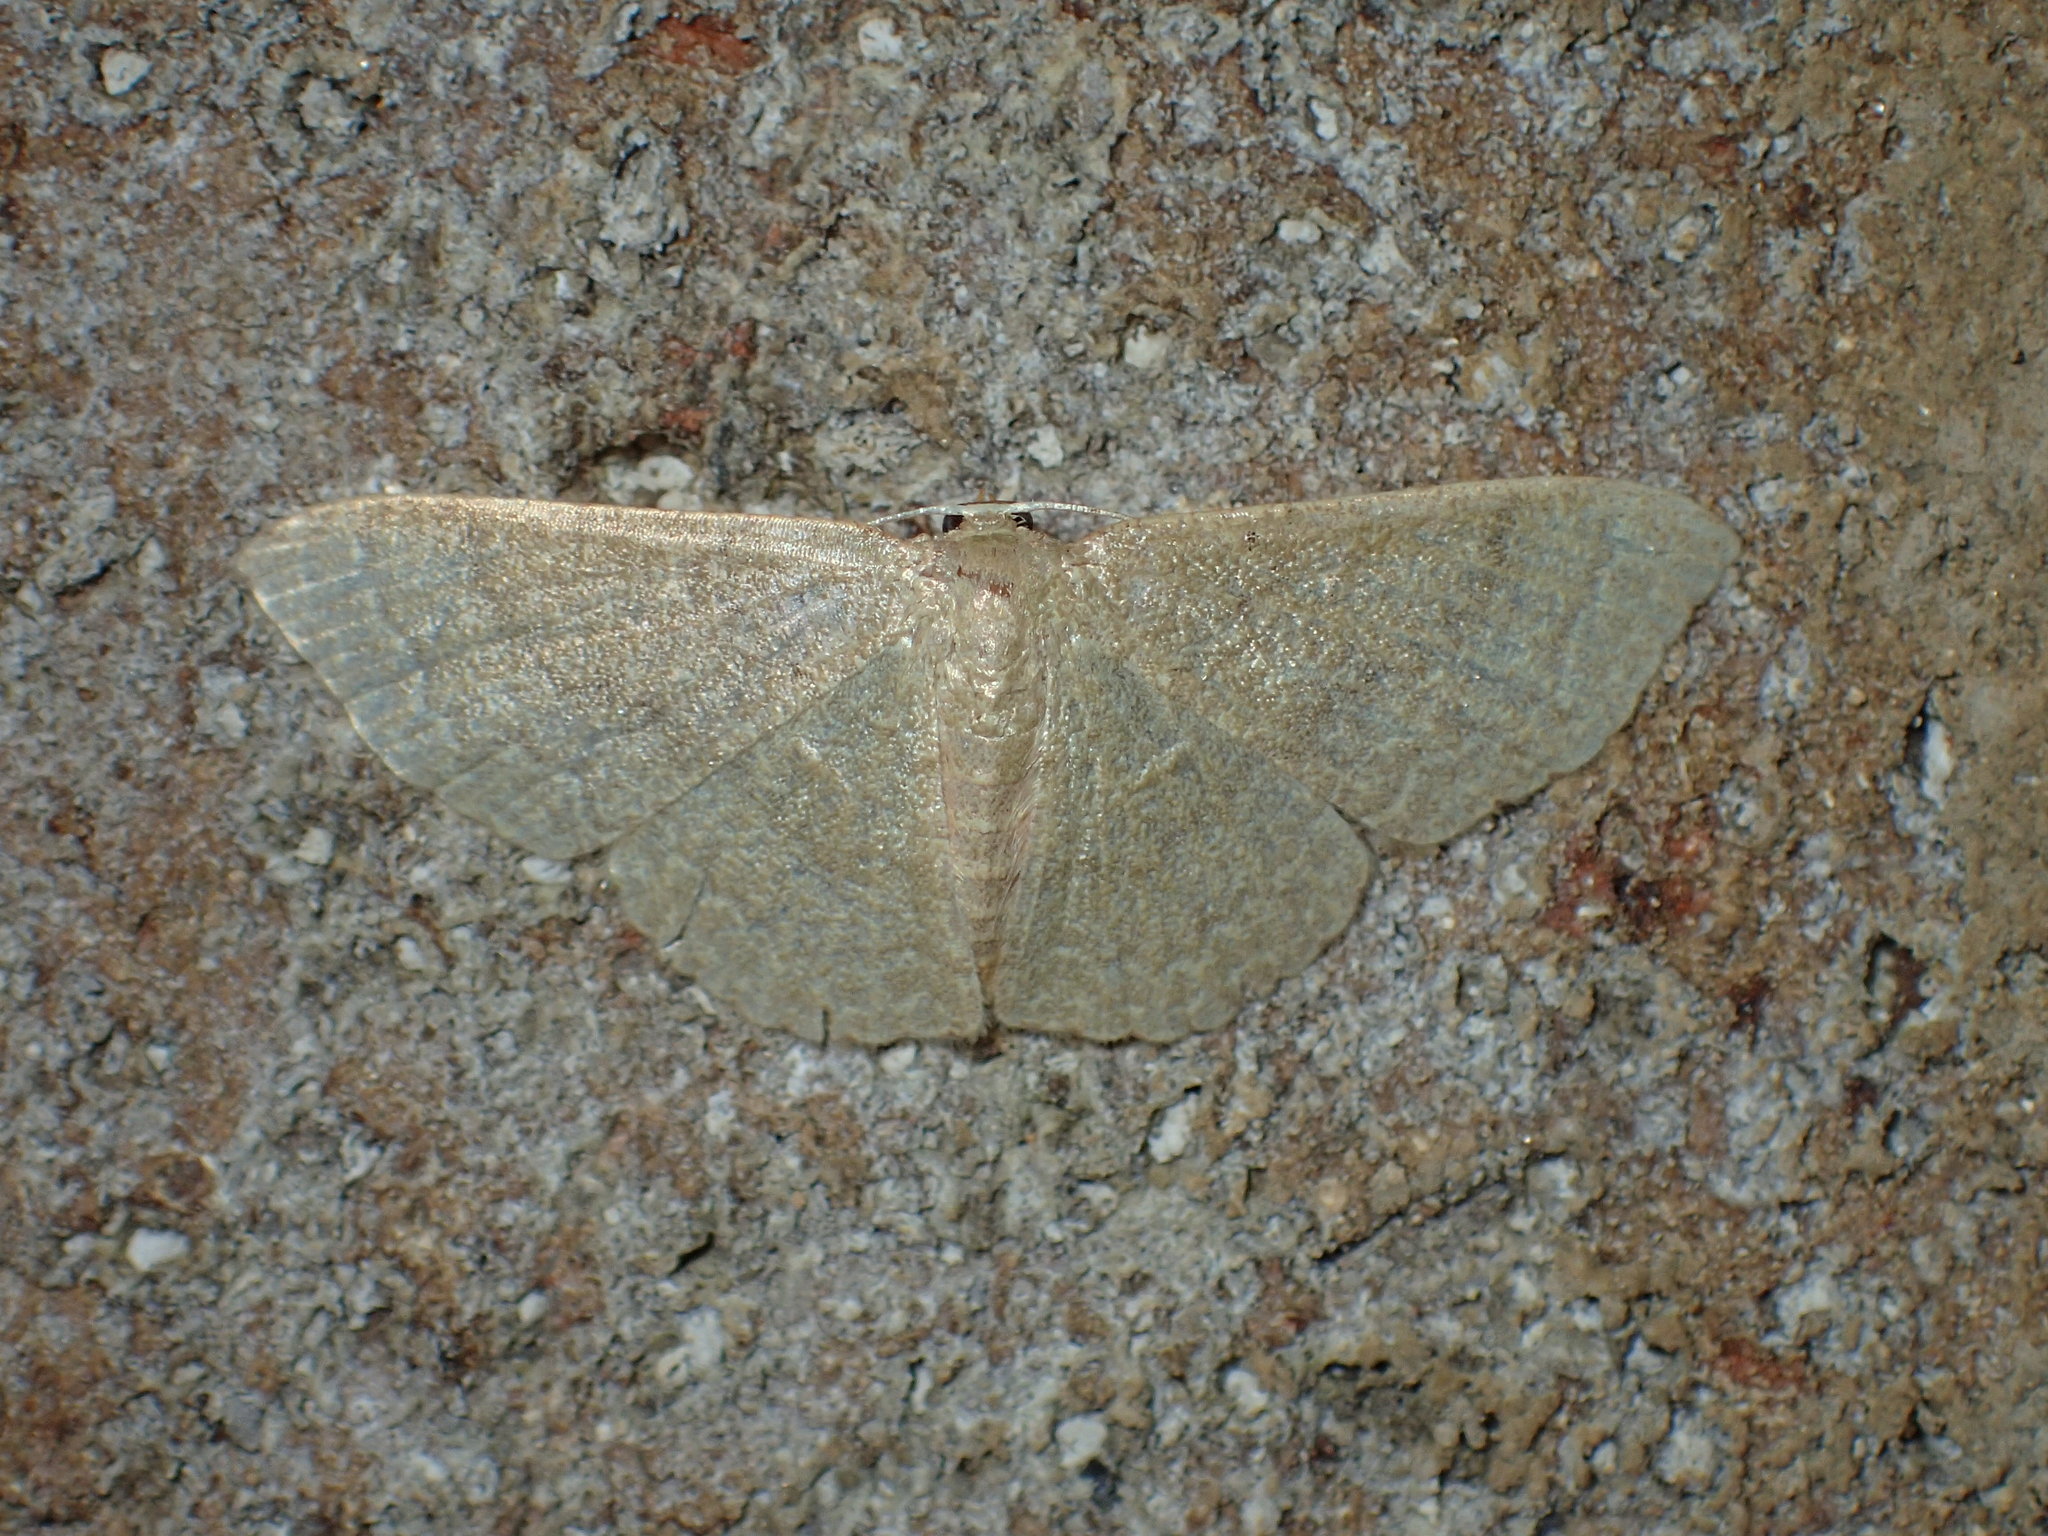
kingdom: Animalia
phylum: Arthropoda
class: Insecta
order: Lepidoptera
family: Geometridae
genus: Pleuroprucha
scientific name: Pleuroprucha insulsaria
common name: Common tan wave
